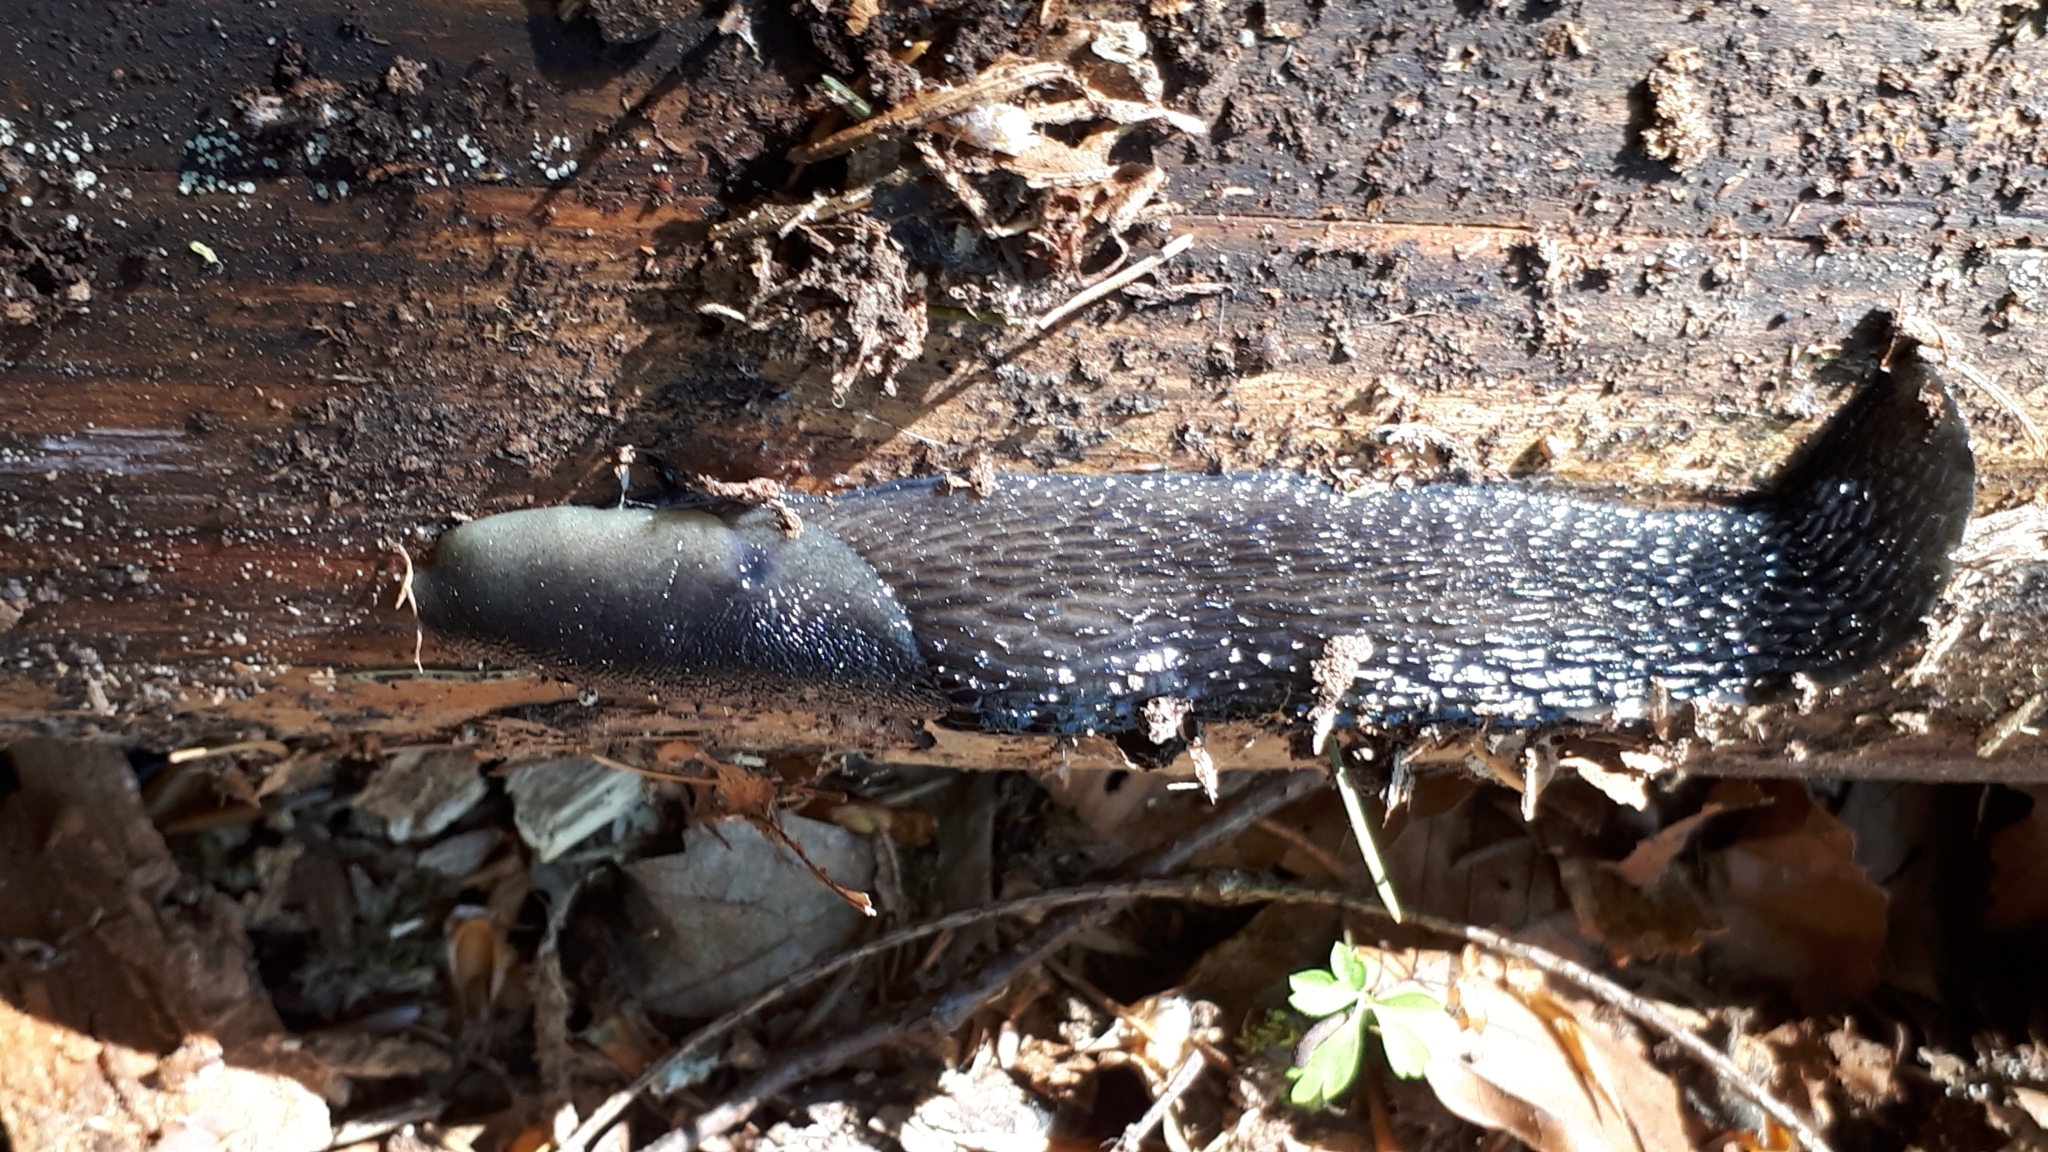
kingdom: Animalia
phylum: Mollusca
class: Gastropoda
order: Stylommatophora
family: Limacidae
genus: Limax
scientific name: Limax cinereoniger
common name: Ash-black slug
